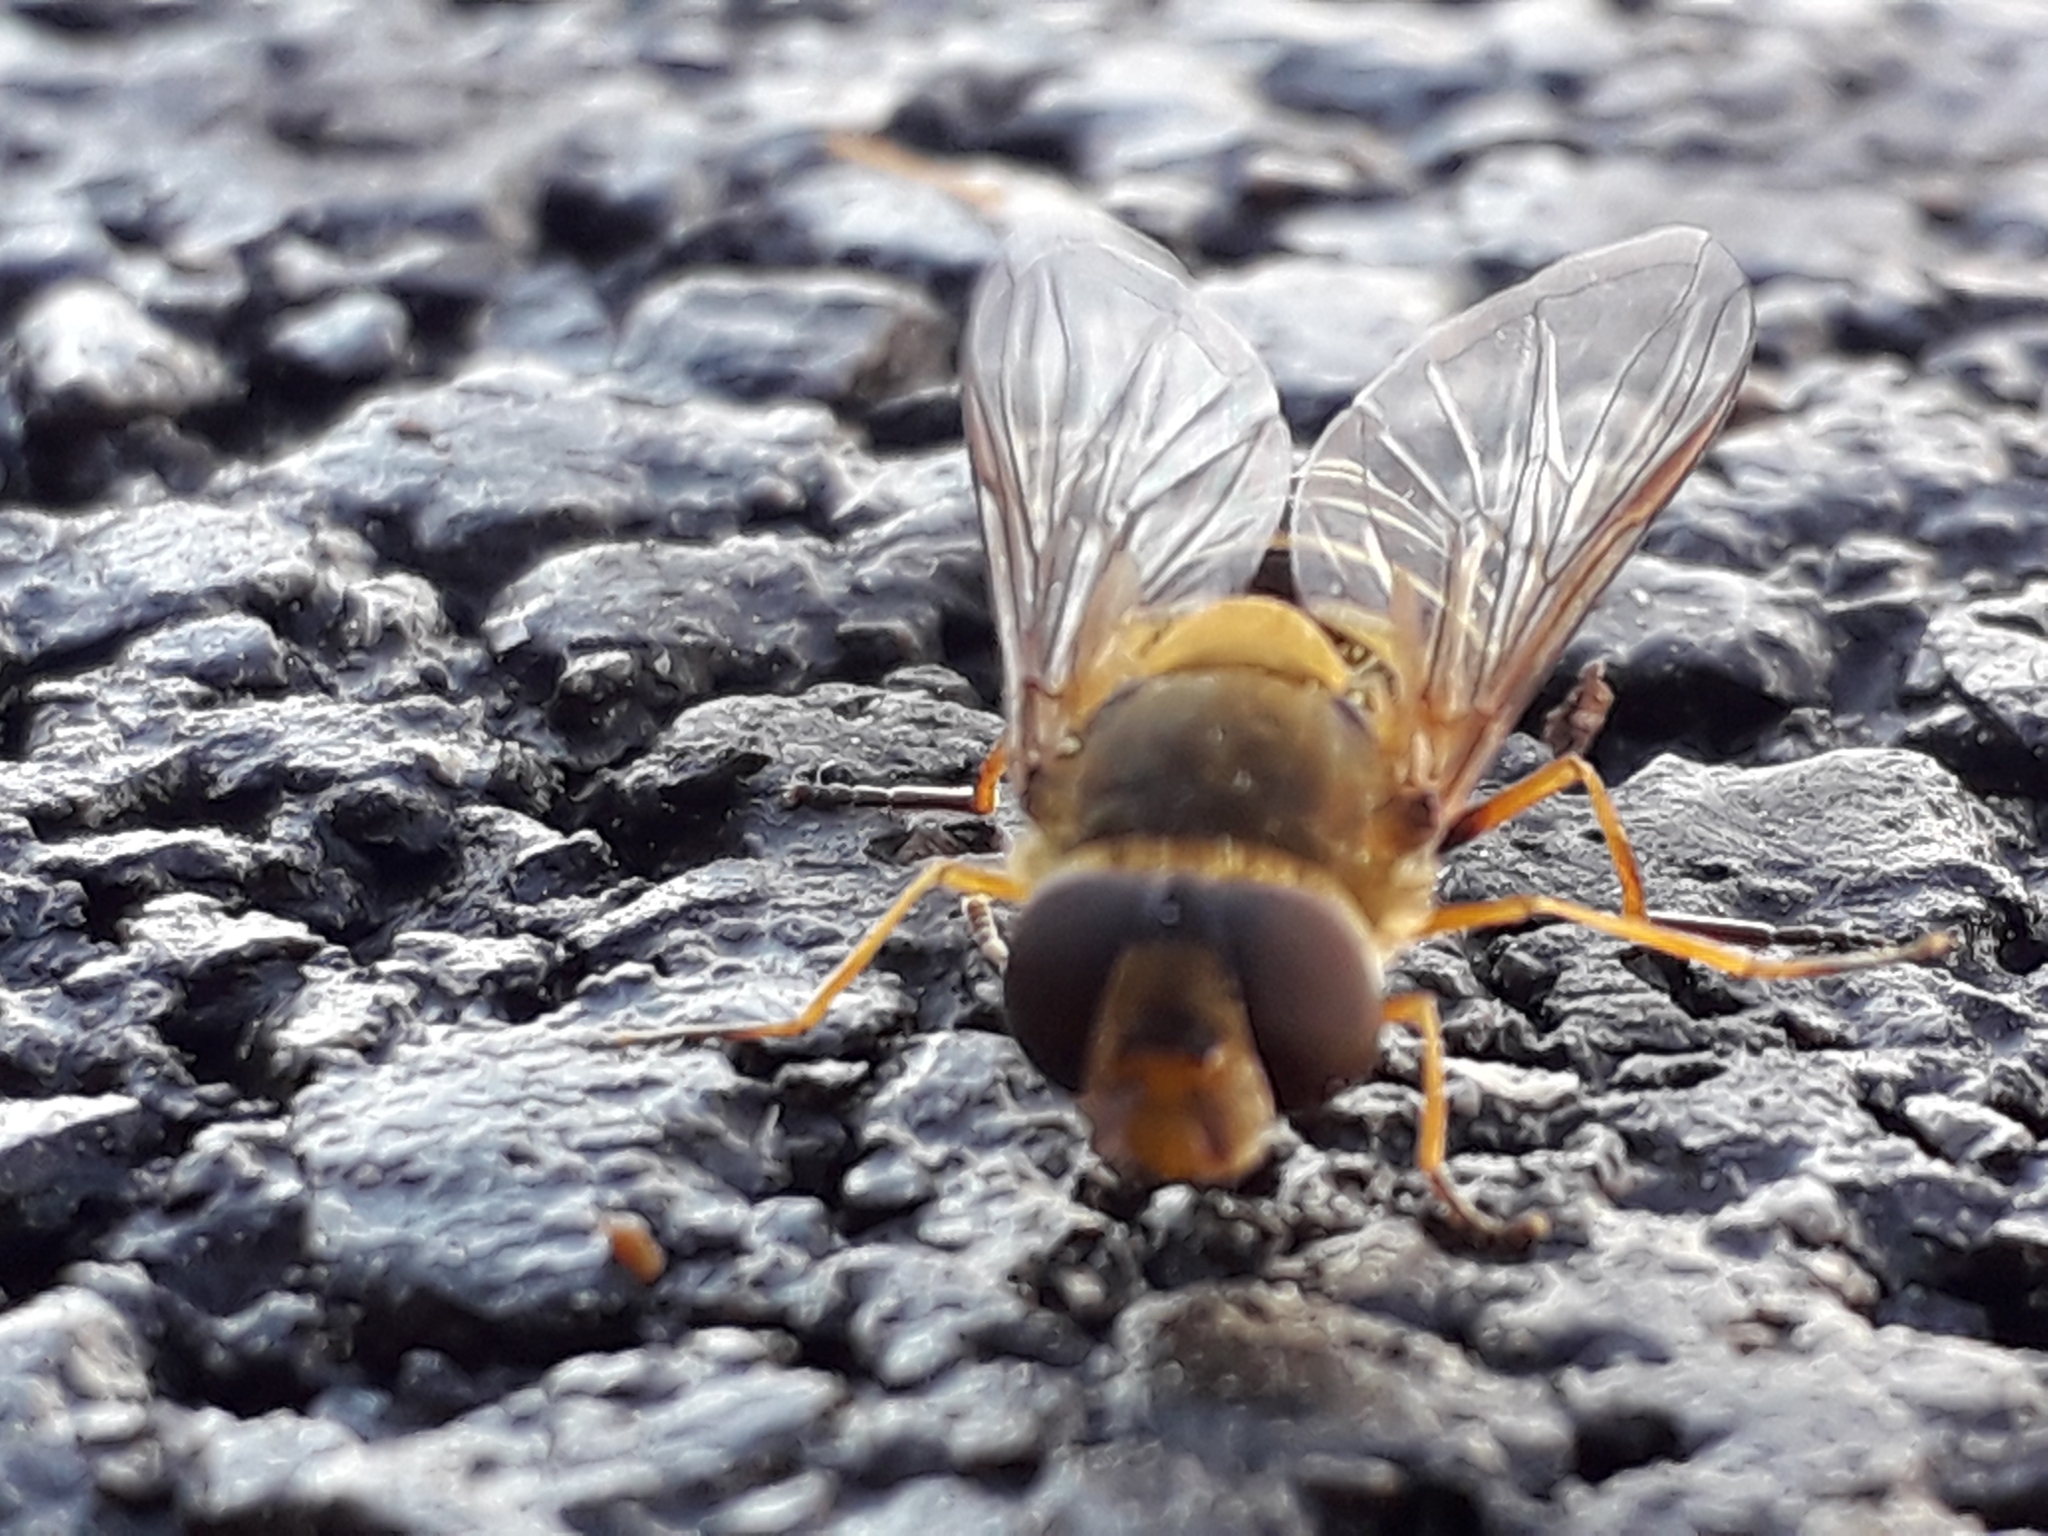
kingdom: Animalia
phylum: Arthropoda
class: Insecta
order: Diptera
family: Syrphidae
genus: Syrphus
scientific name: Syrphus
